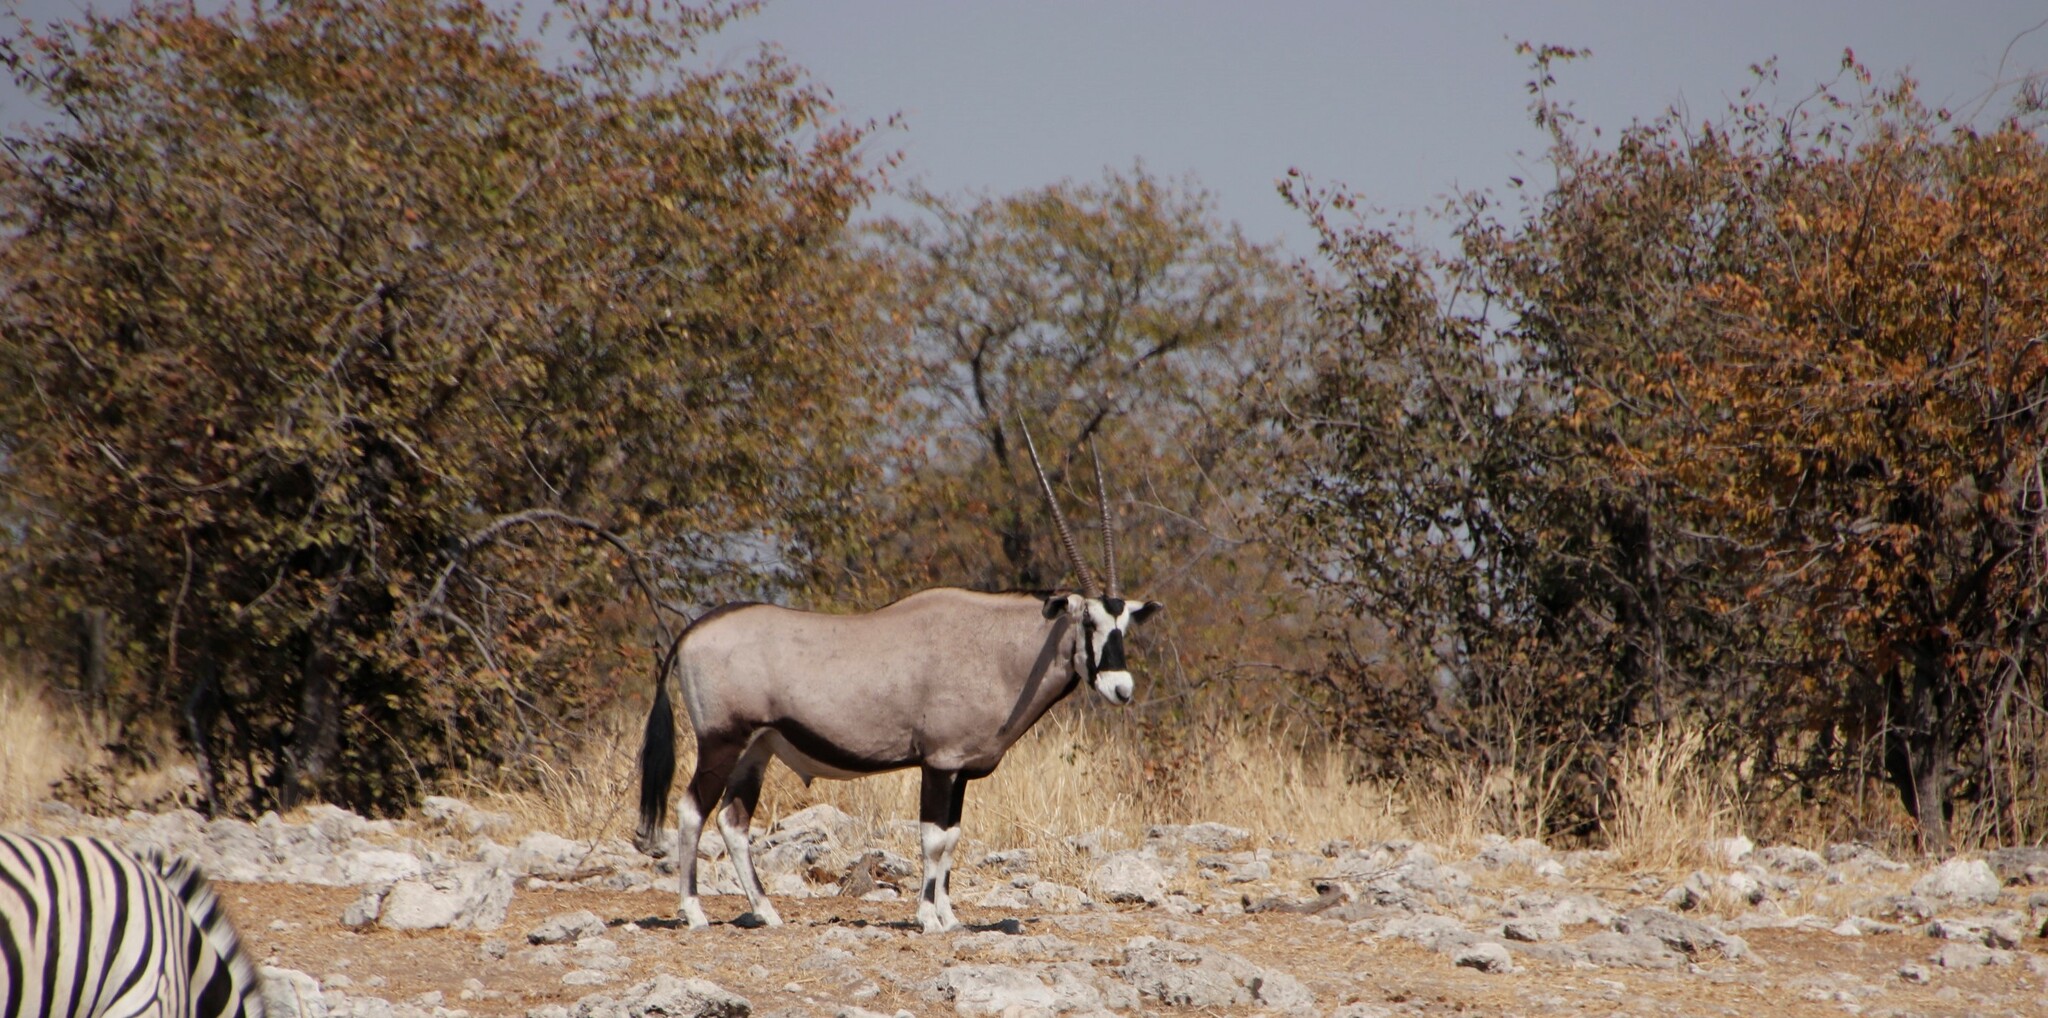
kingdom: Animalia
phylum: Chordata
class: Mammalia
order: Artiodactyla
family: Bovidae
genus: Oryx
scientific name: Oryx gazella
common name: Gemsbok
